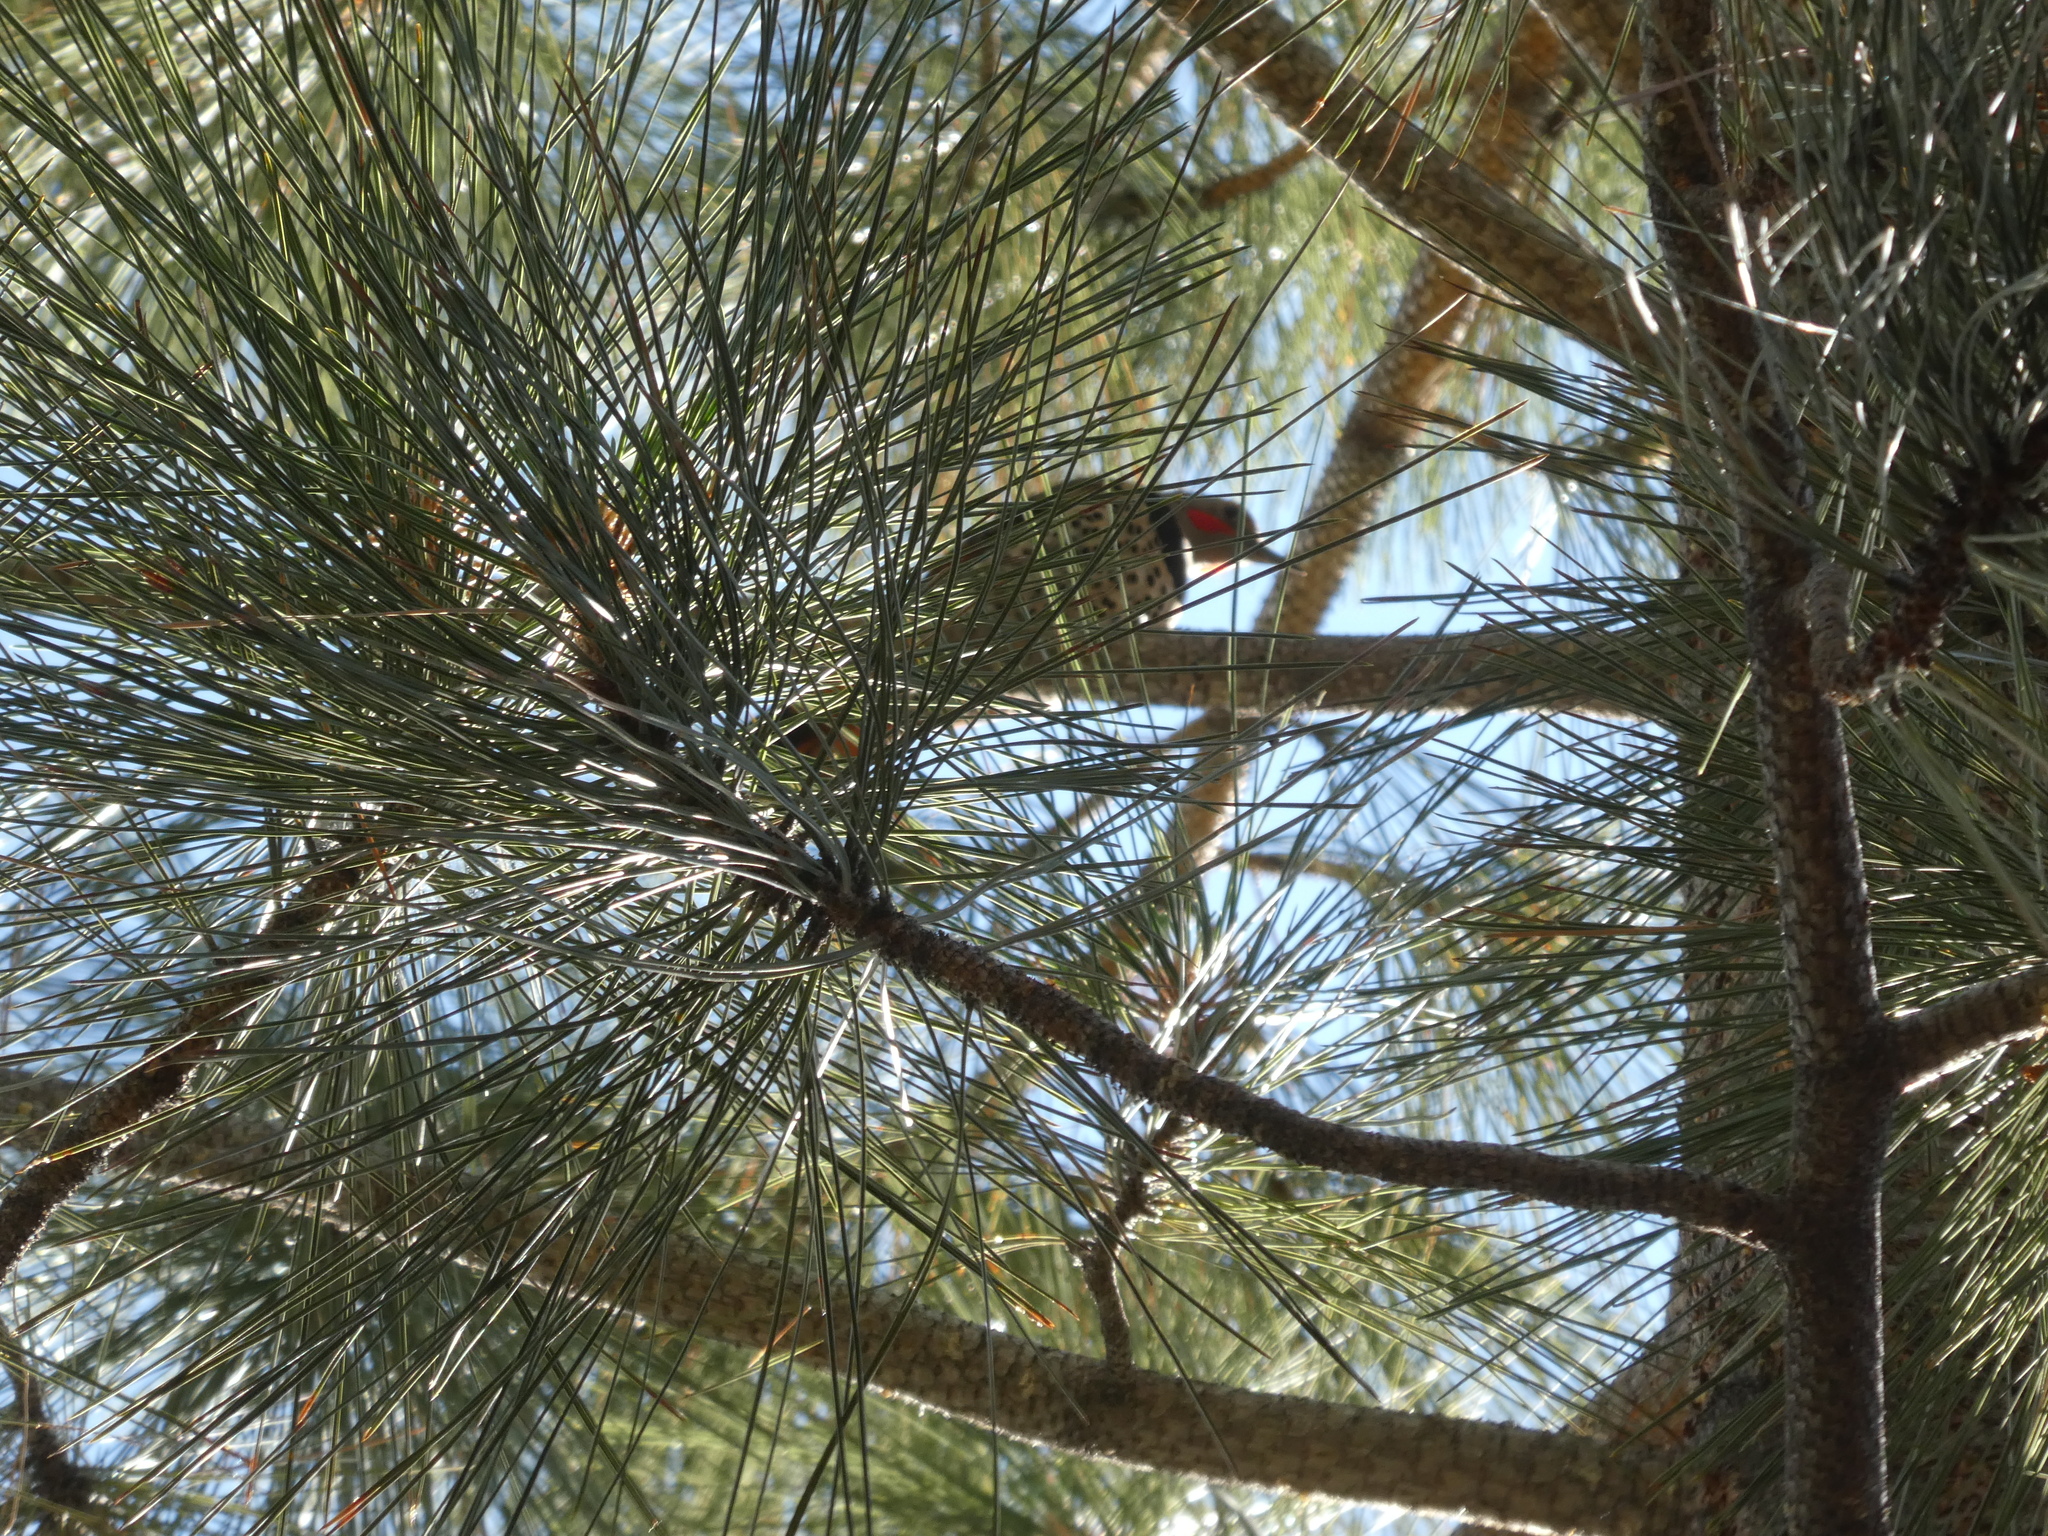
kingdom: Animalia
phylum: Chordata
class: Aves
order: Piciformes
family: Picidae
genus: Colaptes
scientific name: Colaptes auratus
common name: Northern flicker
